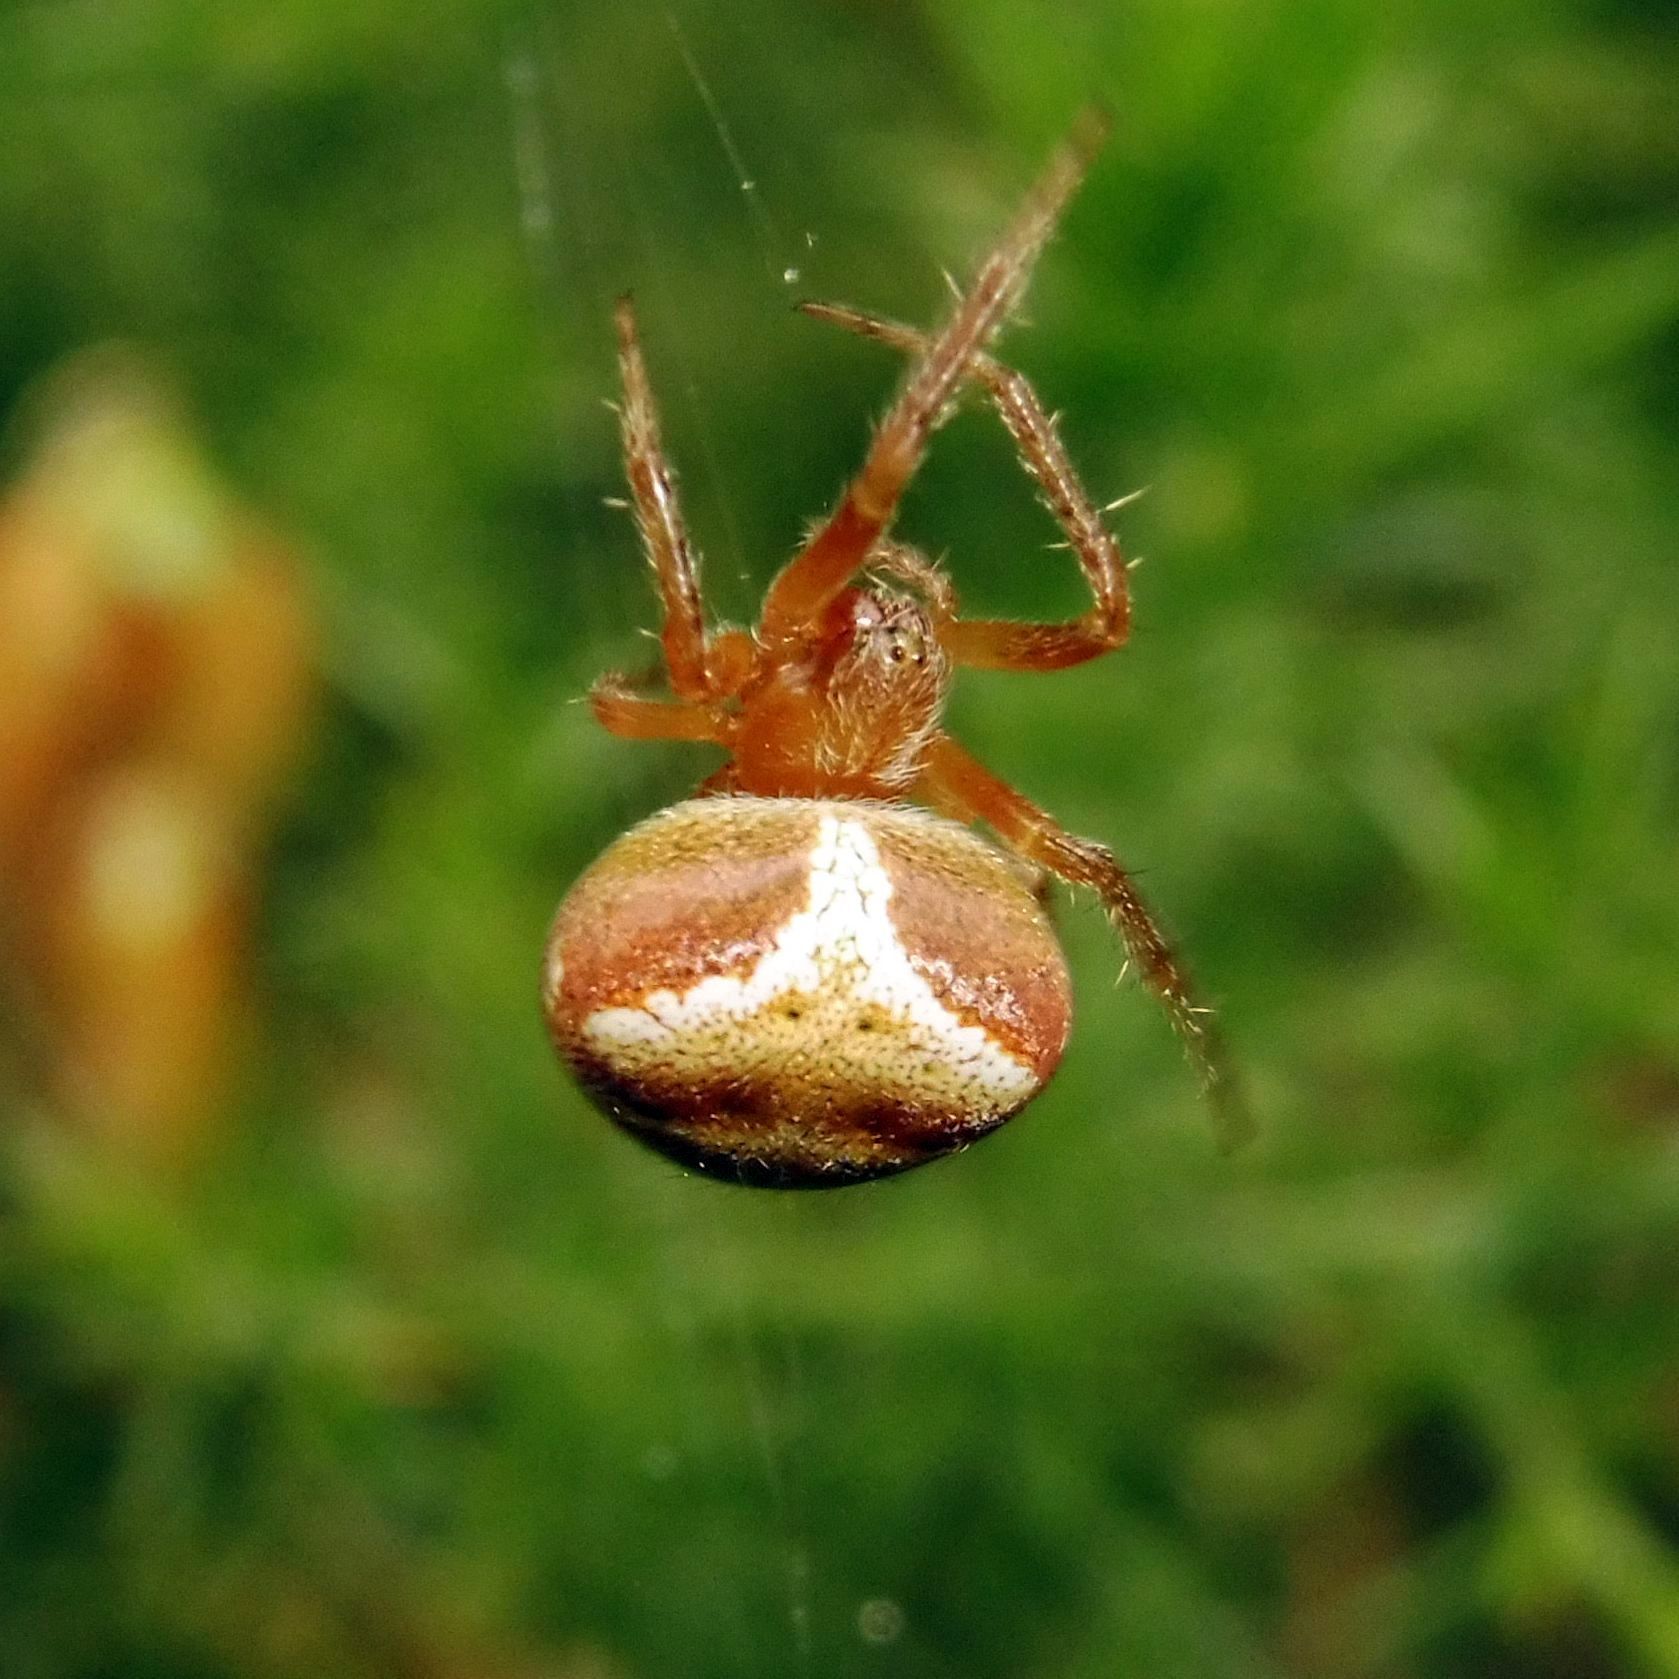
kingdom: Animalia
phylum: Arthropoda
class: Arachnida
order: Araneae
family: Araneidae
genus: Araneus
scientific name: Araneus triguttatus
